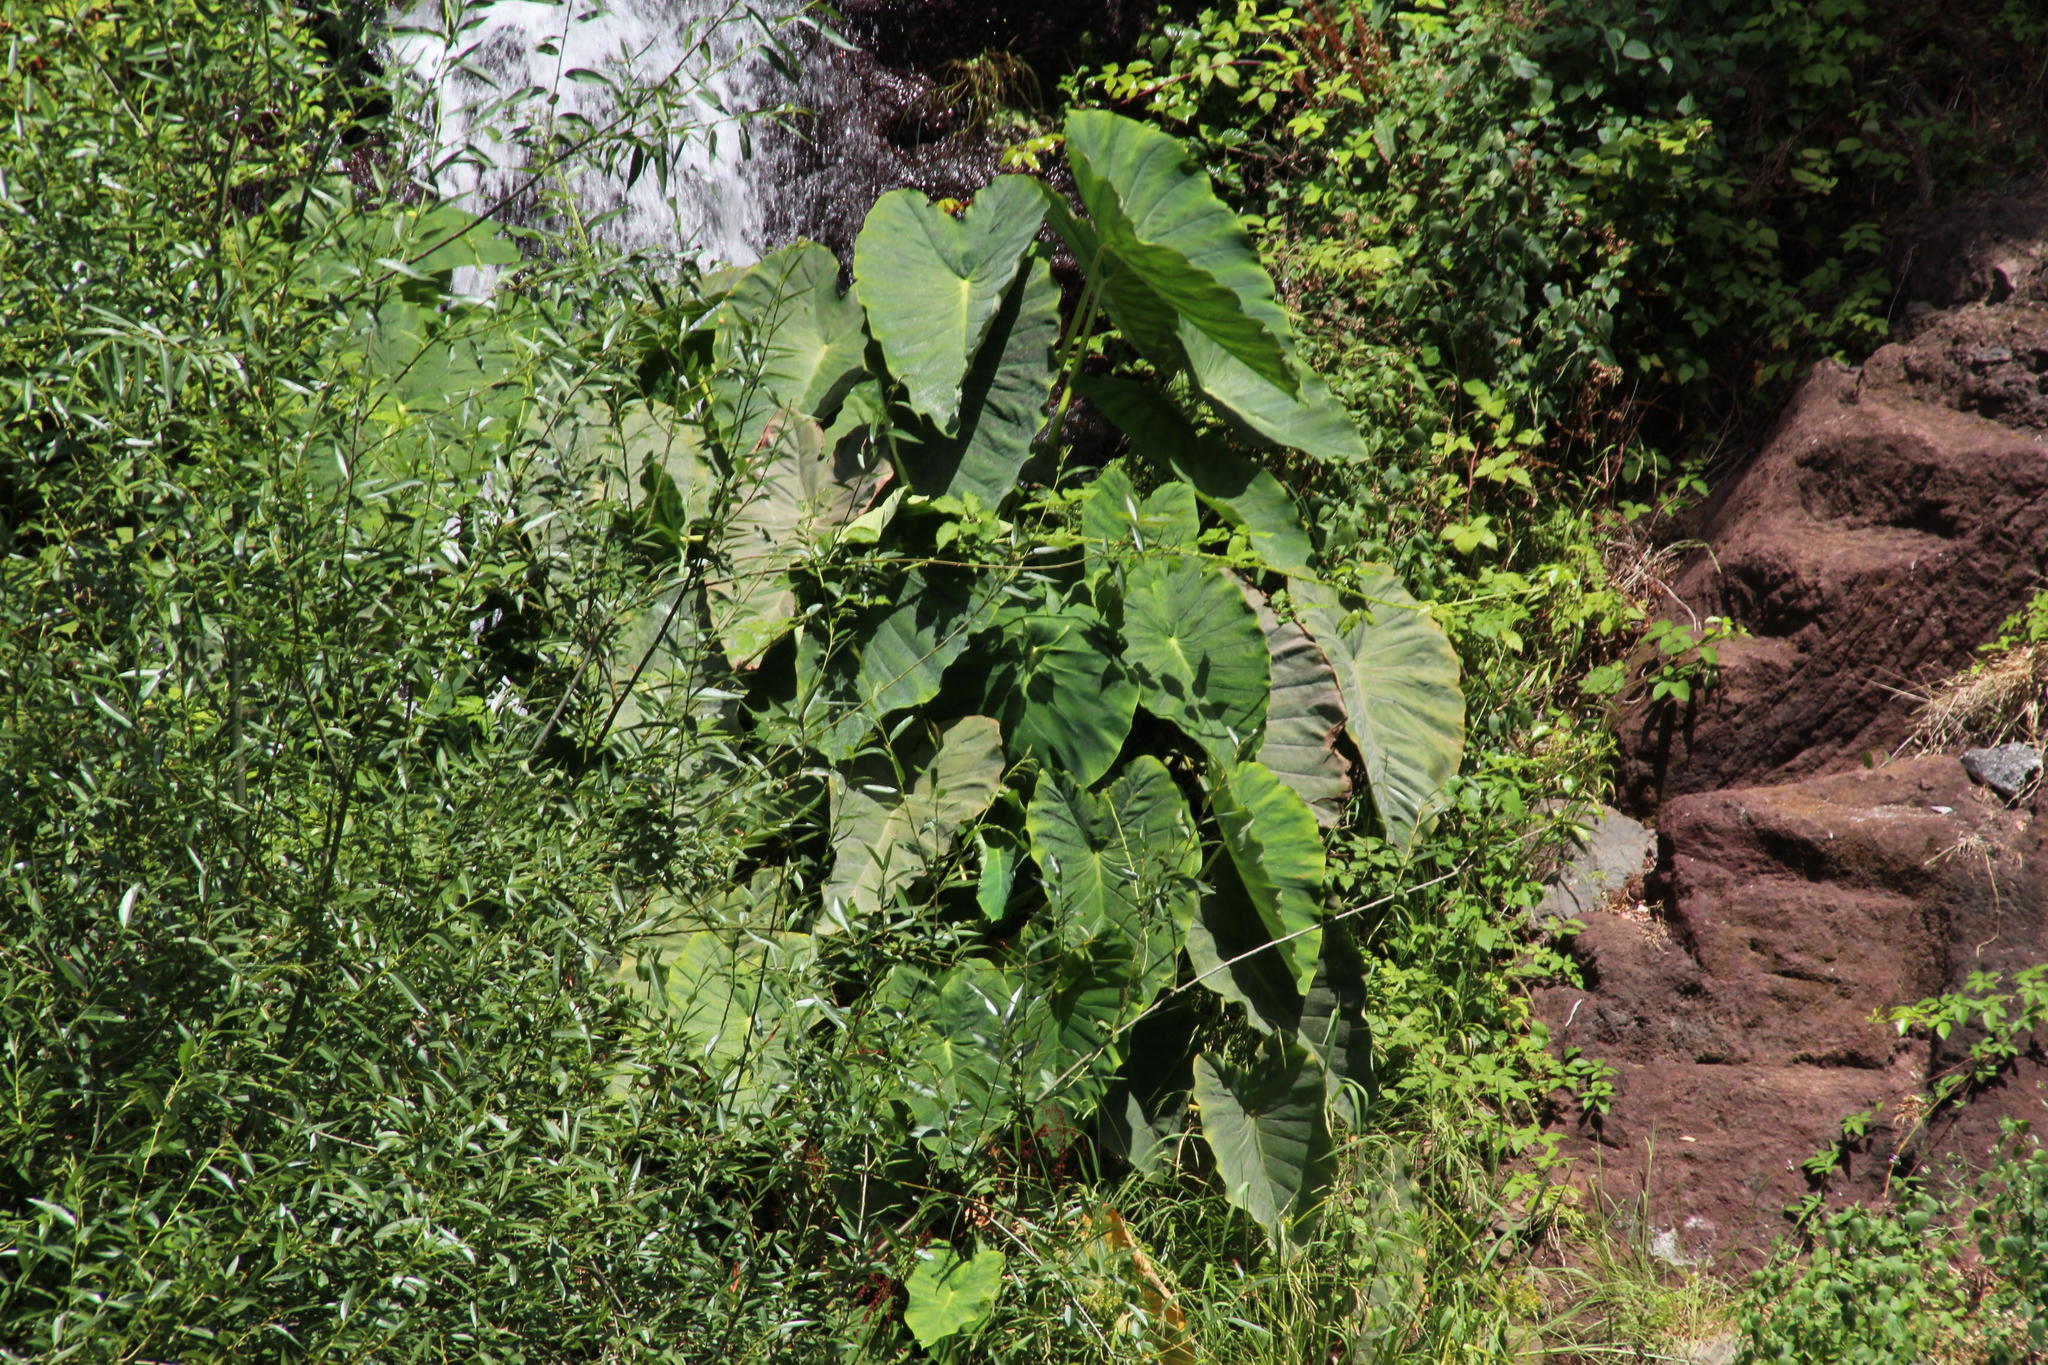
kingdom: Plantae
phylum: Tracheophyta
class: Liliopsida
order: Alismatales
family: Araceae
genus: Colocasia
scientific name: Colocasia esculenta
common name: Taro
